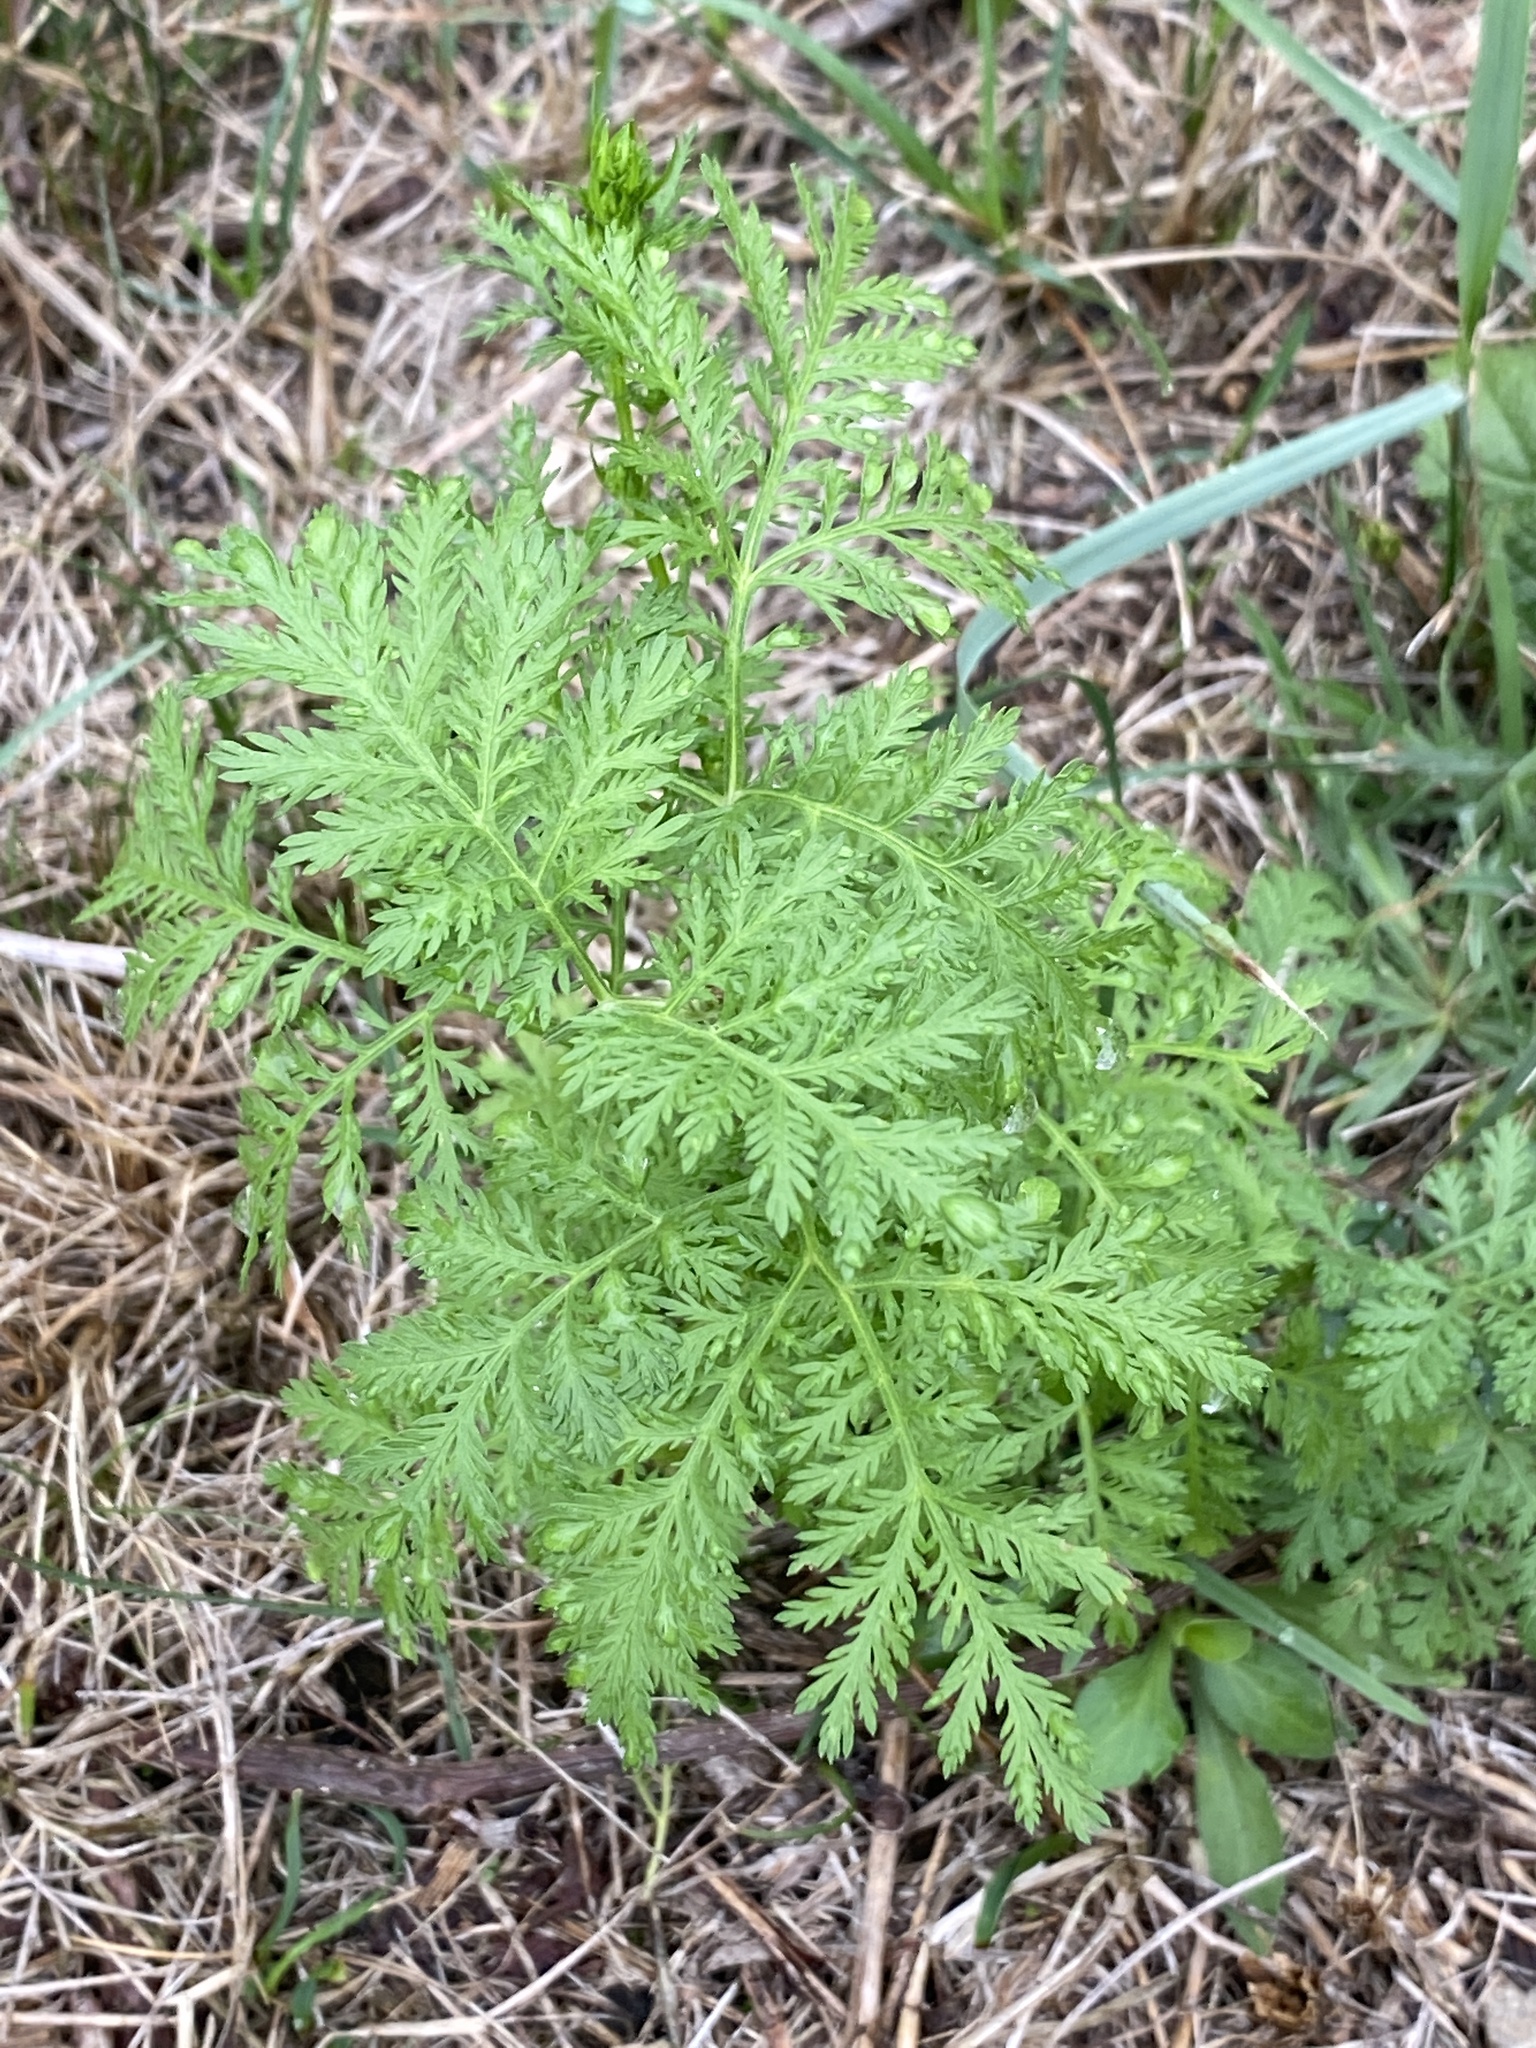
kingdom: Plantae
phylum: Tracheophyta
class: Magnoliopsida
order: Asterales
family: Asteraceae
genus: Artemisia
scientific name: Artemisia annua
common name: Sweet sagewort
